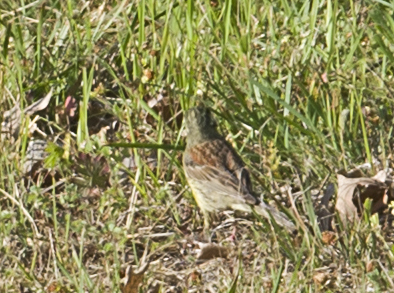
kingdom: Animalia
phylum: Chordata
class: Aves
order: Passeriformes
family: Emberizidae
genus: Emberiza
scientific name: Emberiza cirlus
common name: Cirl bunting
